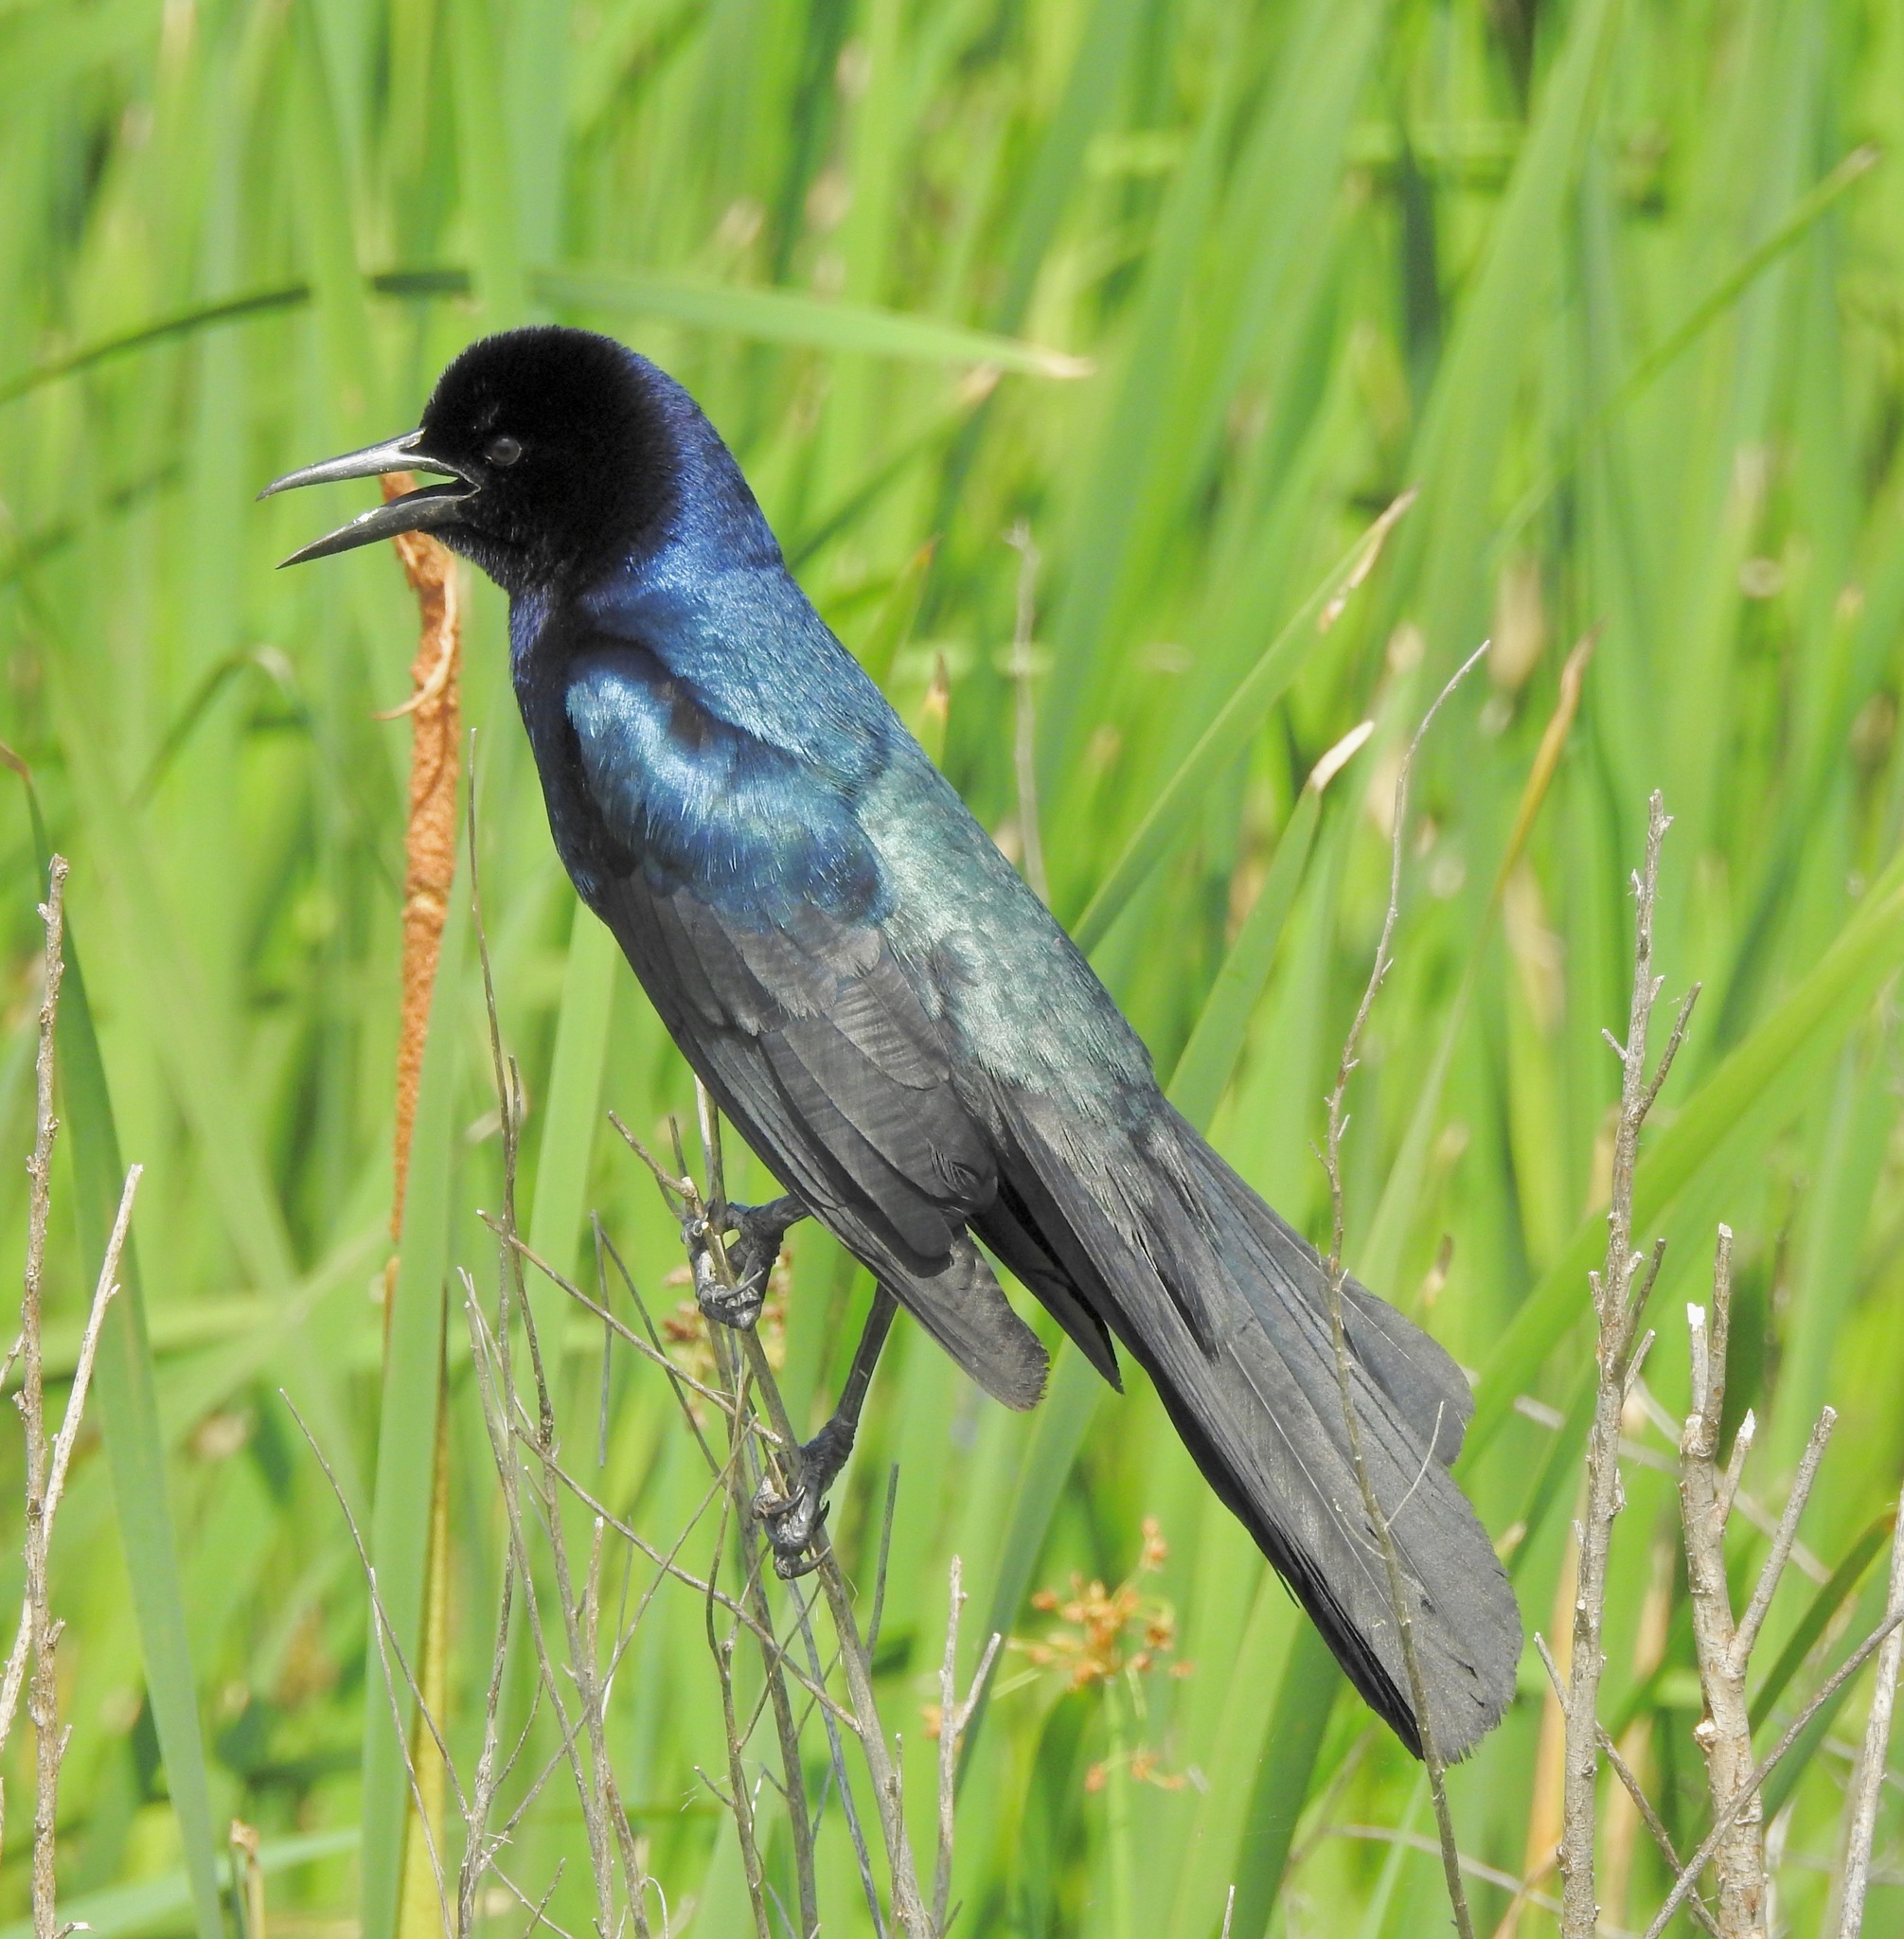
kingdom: Animalia
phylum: Chordata
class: Aves
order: Passeriformes
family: Icteridae
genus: Quiscalus
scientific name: Quiscalus major
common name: Boat-tailed grackle
